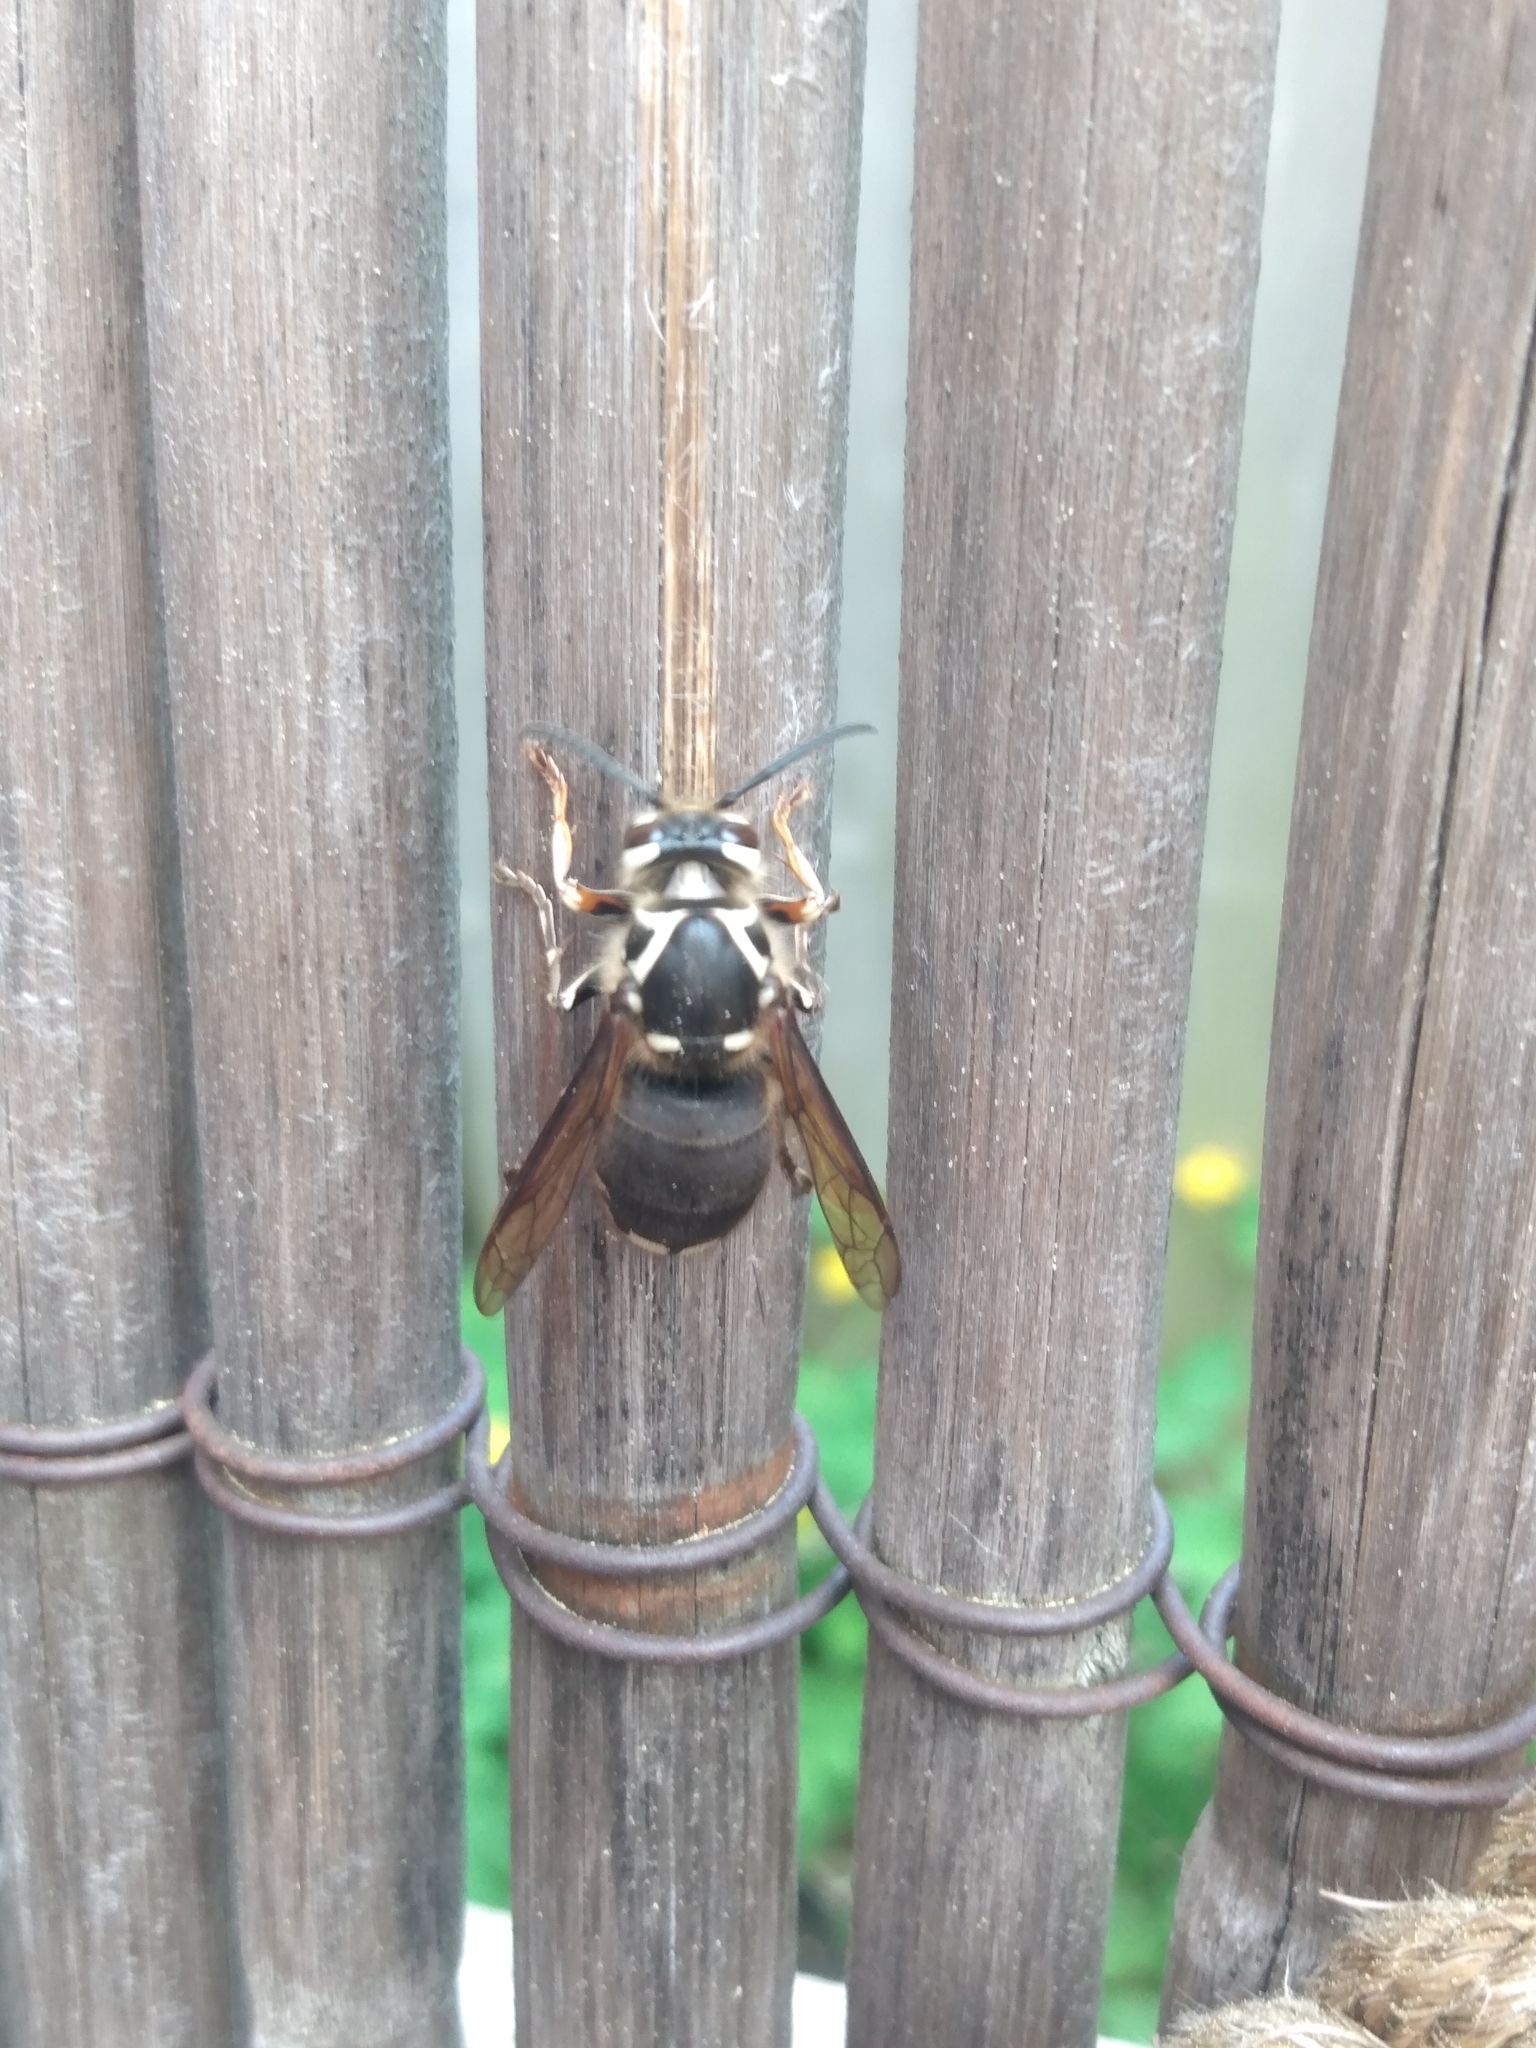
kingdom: Animalia
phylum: Arthropoda
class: Insecta
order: Hymenoptera
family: Vespidae
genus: Dolichovespula
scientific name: Dolichovespula maculata
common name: Bald-faced hornet
